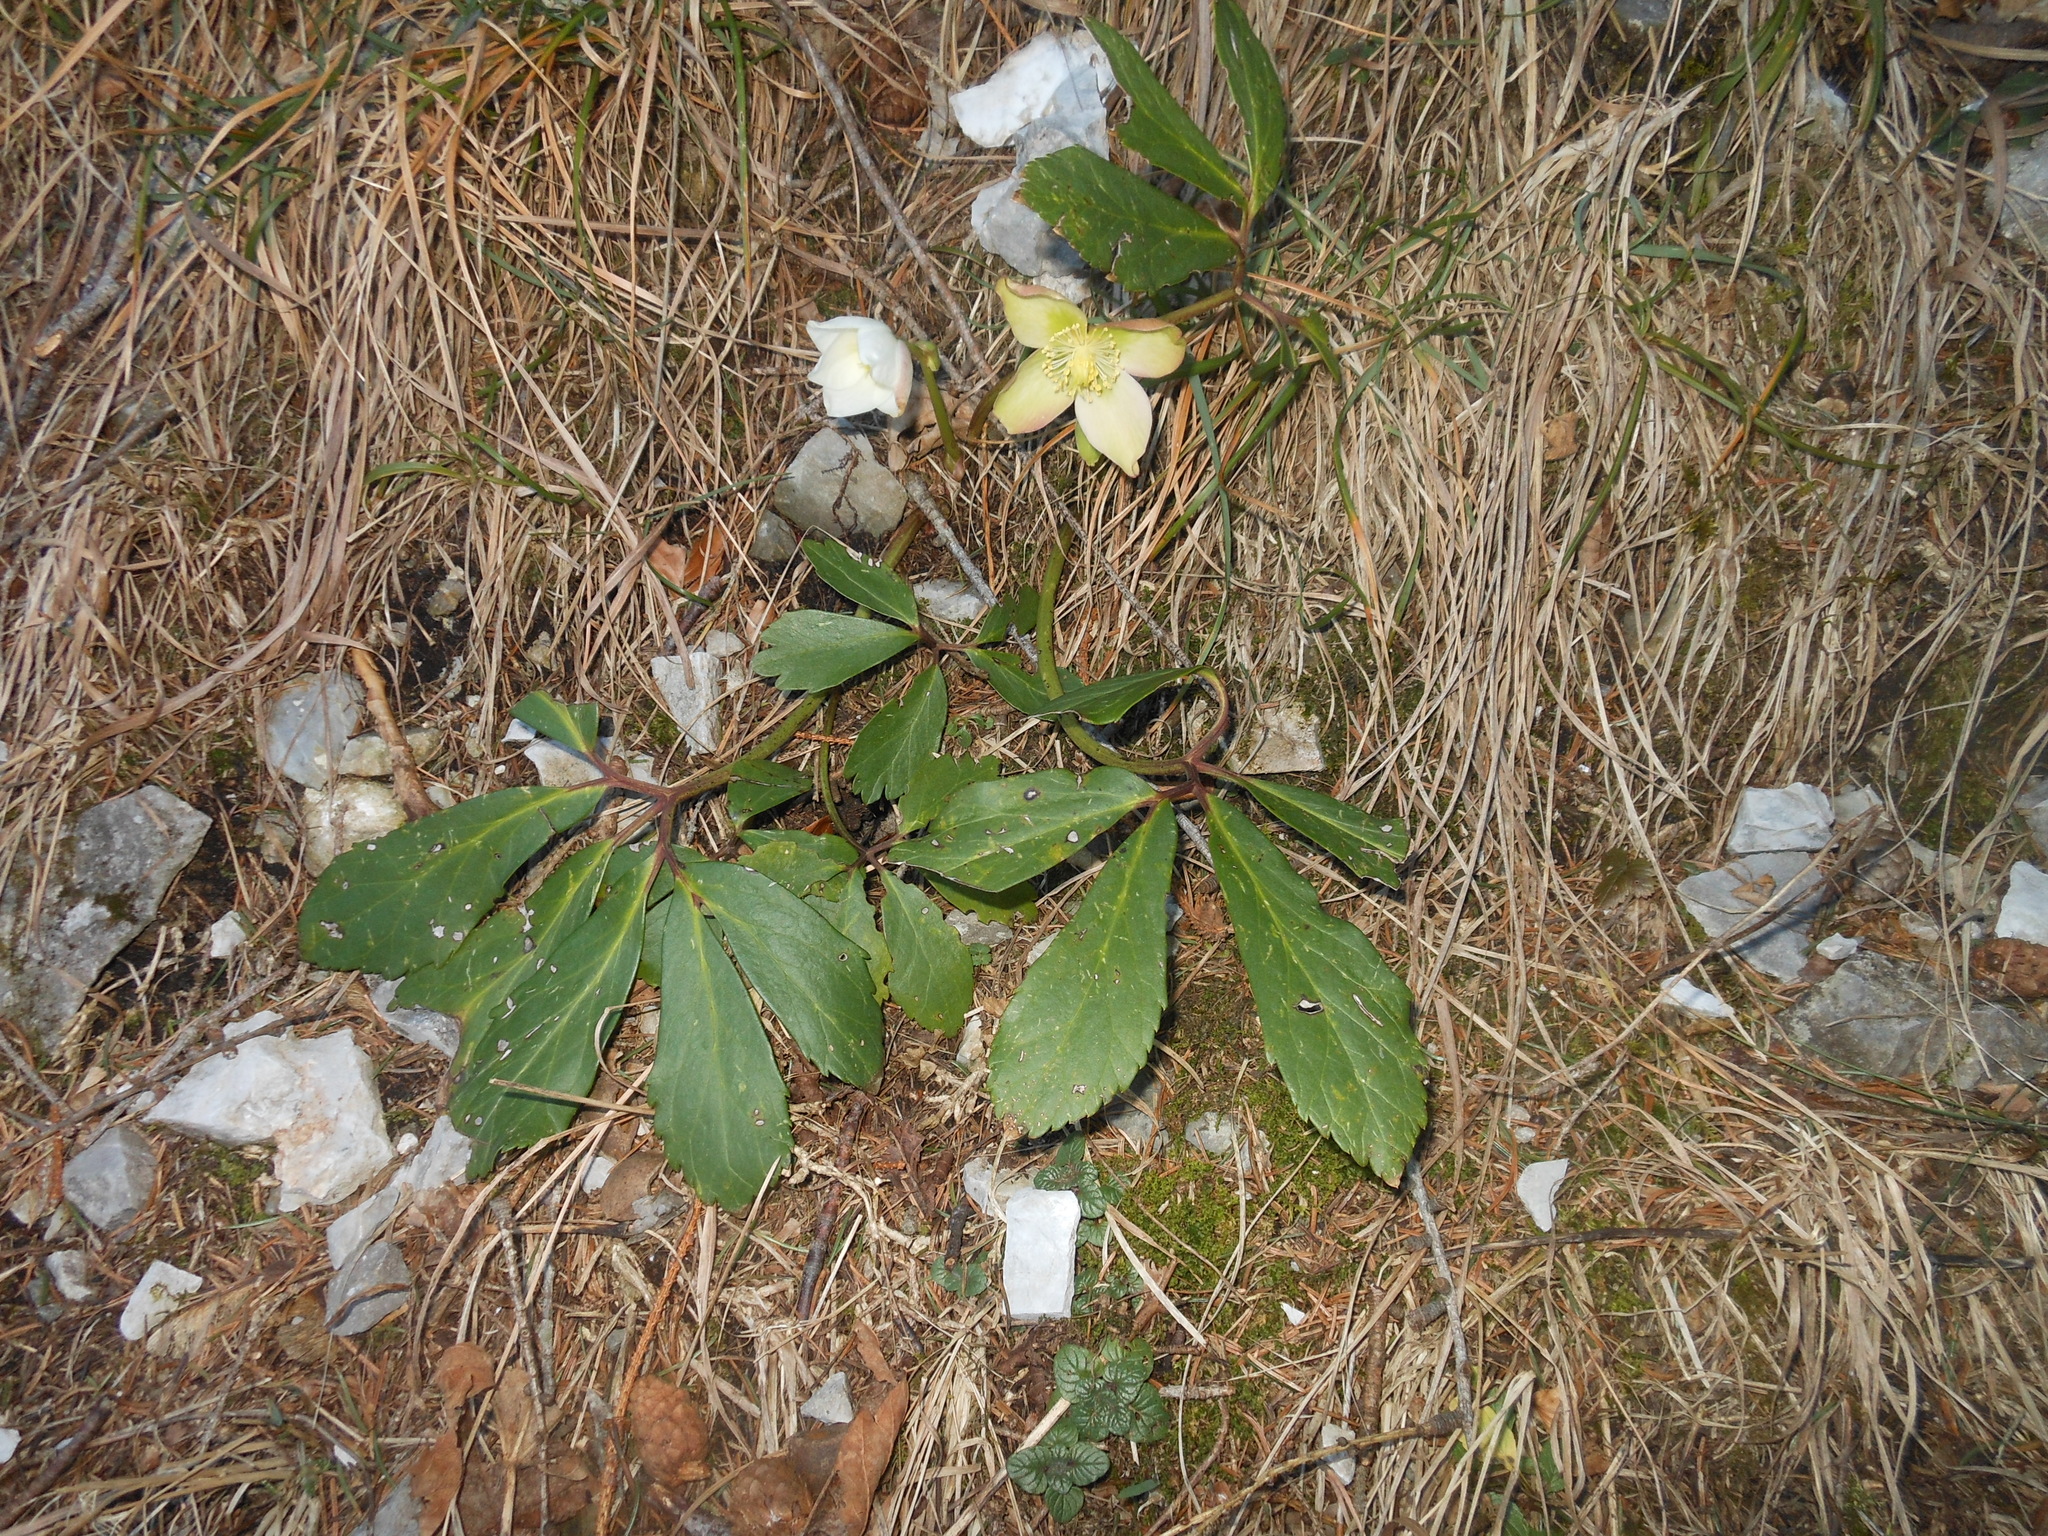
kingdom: Plantae
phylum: Tracheophyta
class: Magnoliopsida
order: Ranunculales
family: Ranunculaceae
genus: Helleborus
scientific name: Helleborus niger
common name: Black hellebore
